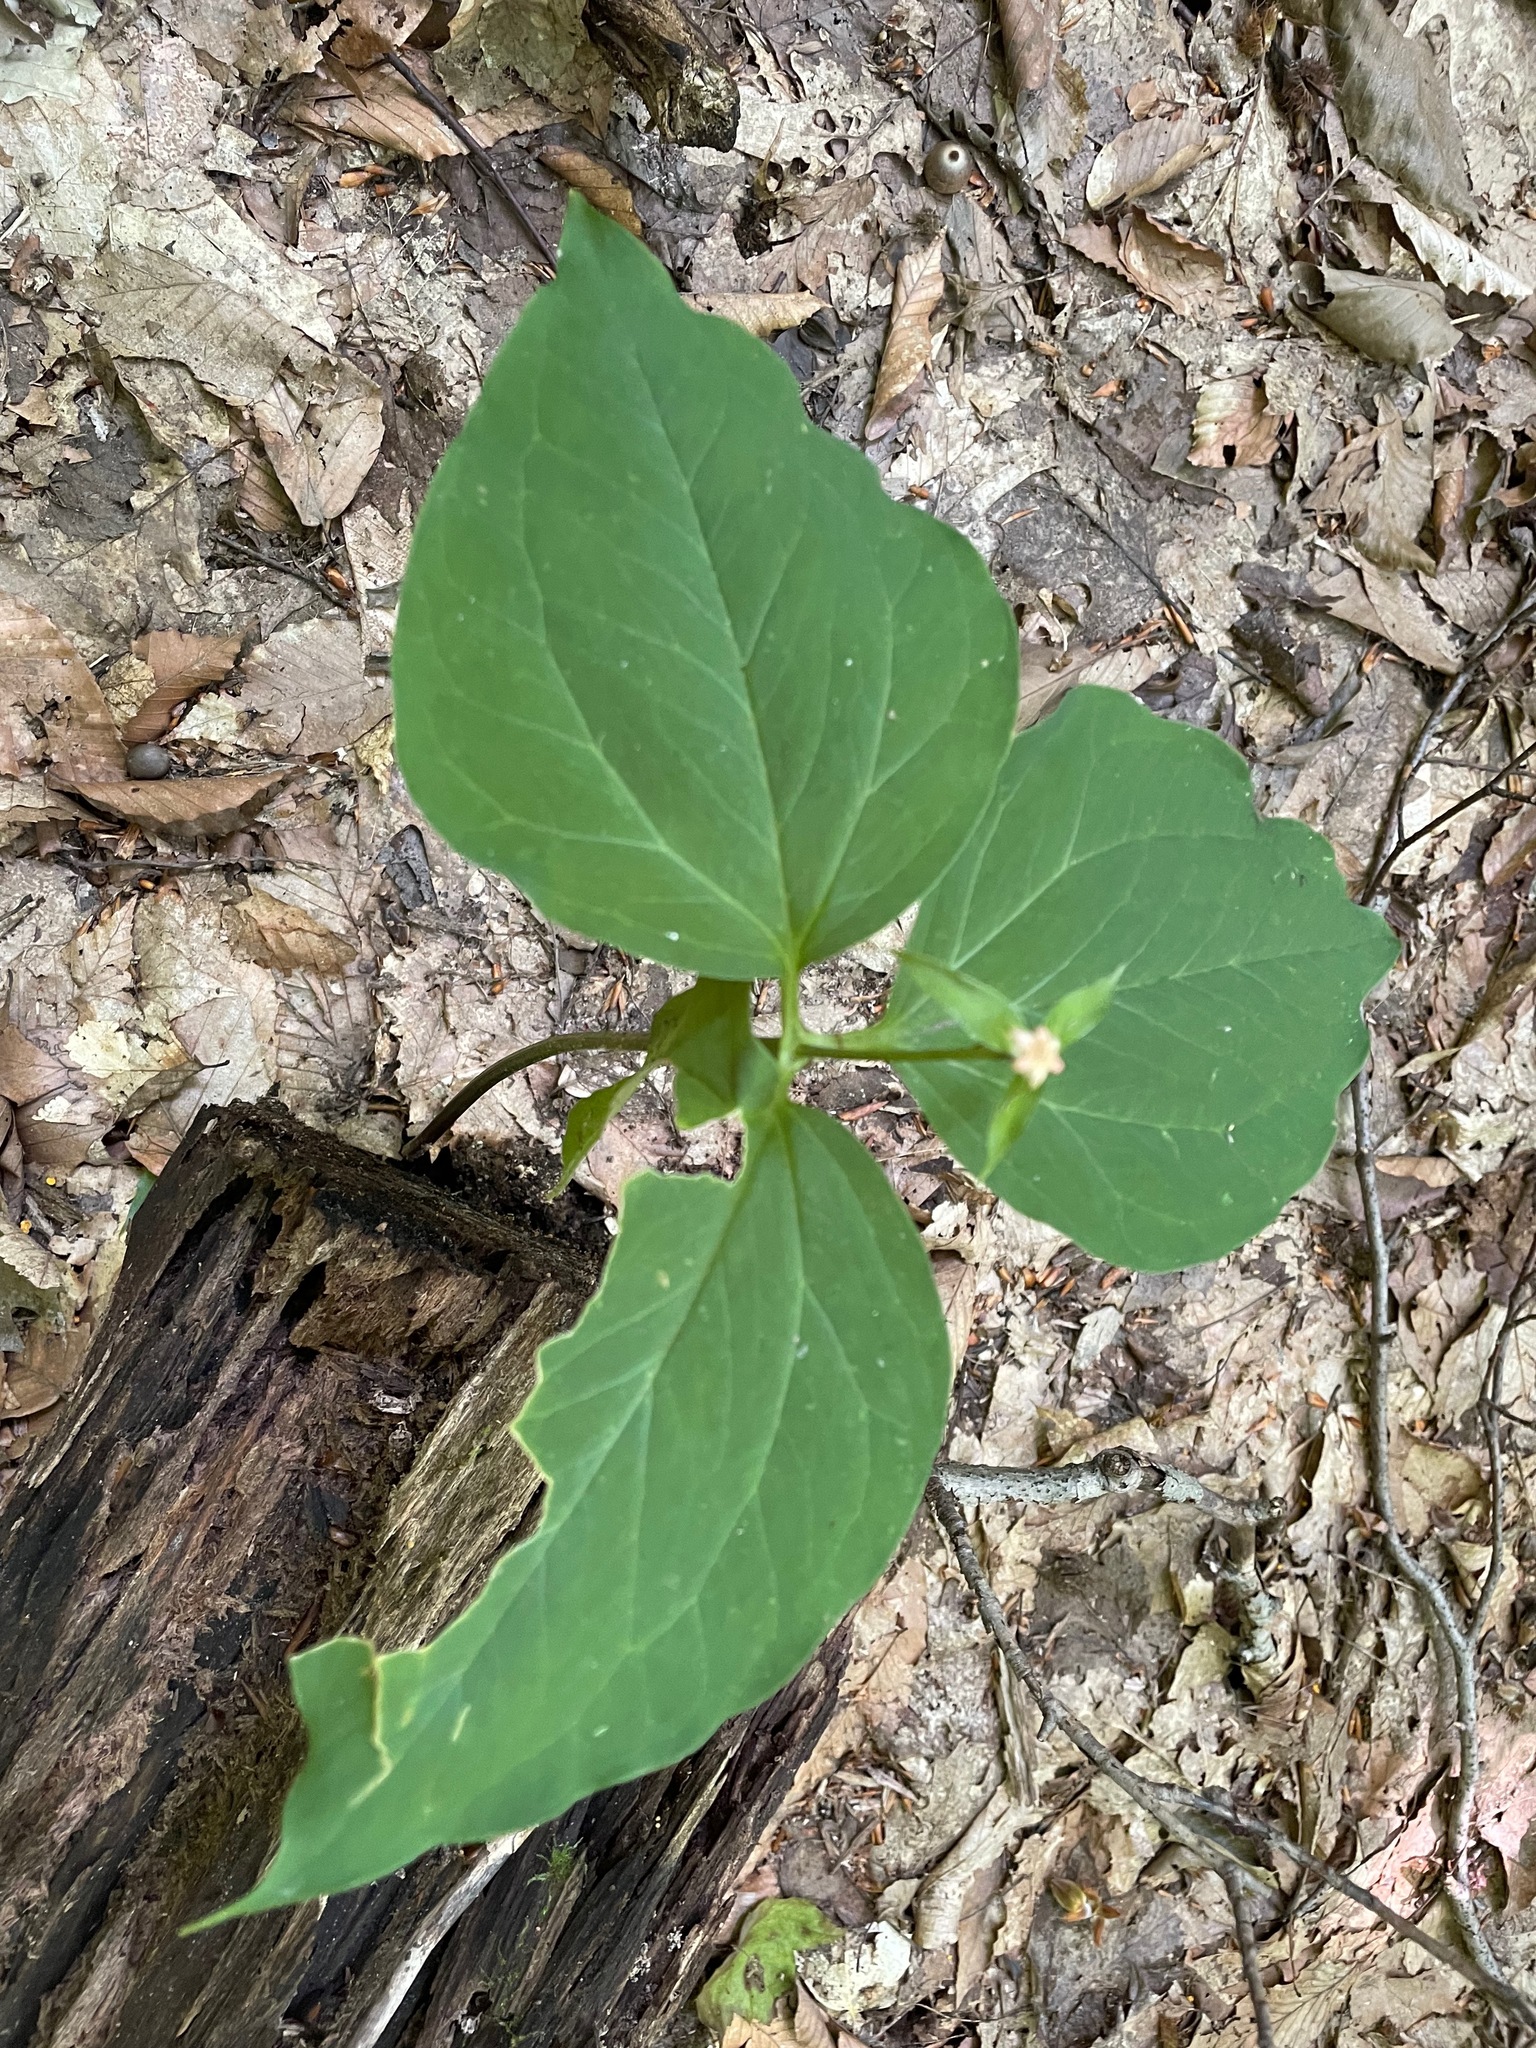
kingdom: Plantae
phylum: Tracheophyta
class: Liliopsida
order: Liliales
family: Melanthiaceae
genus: Trillium
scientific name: Trillium undulatum
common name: Paint trillium
